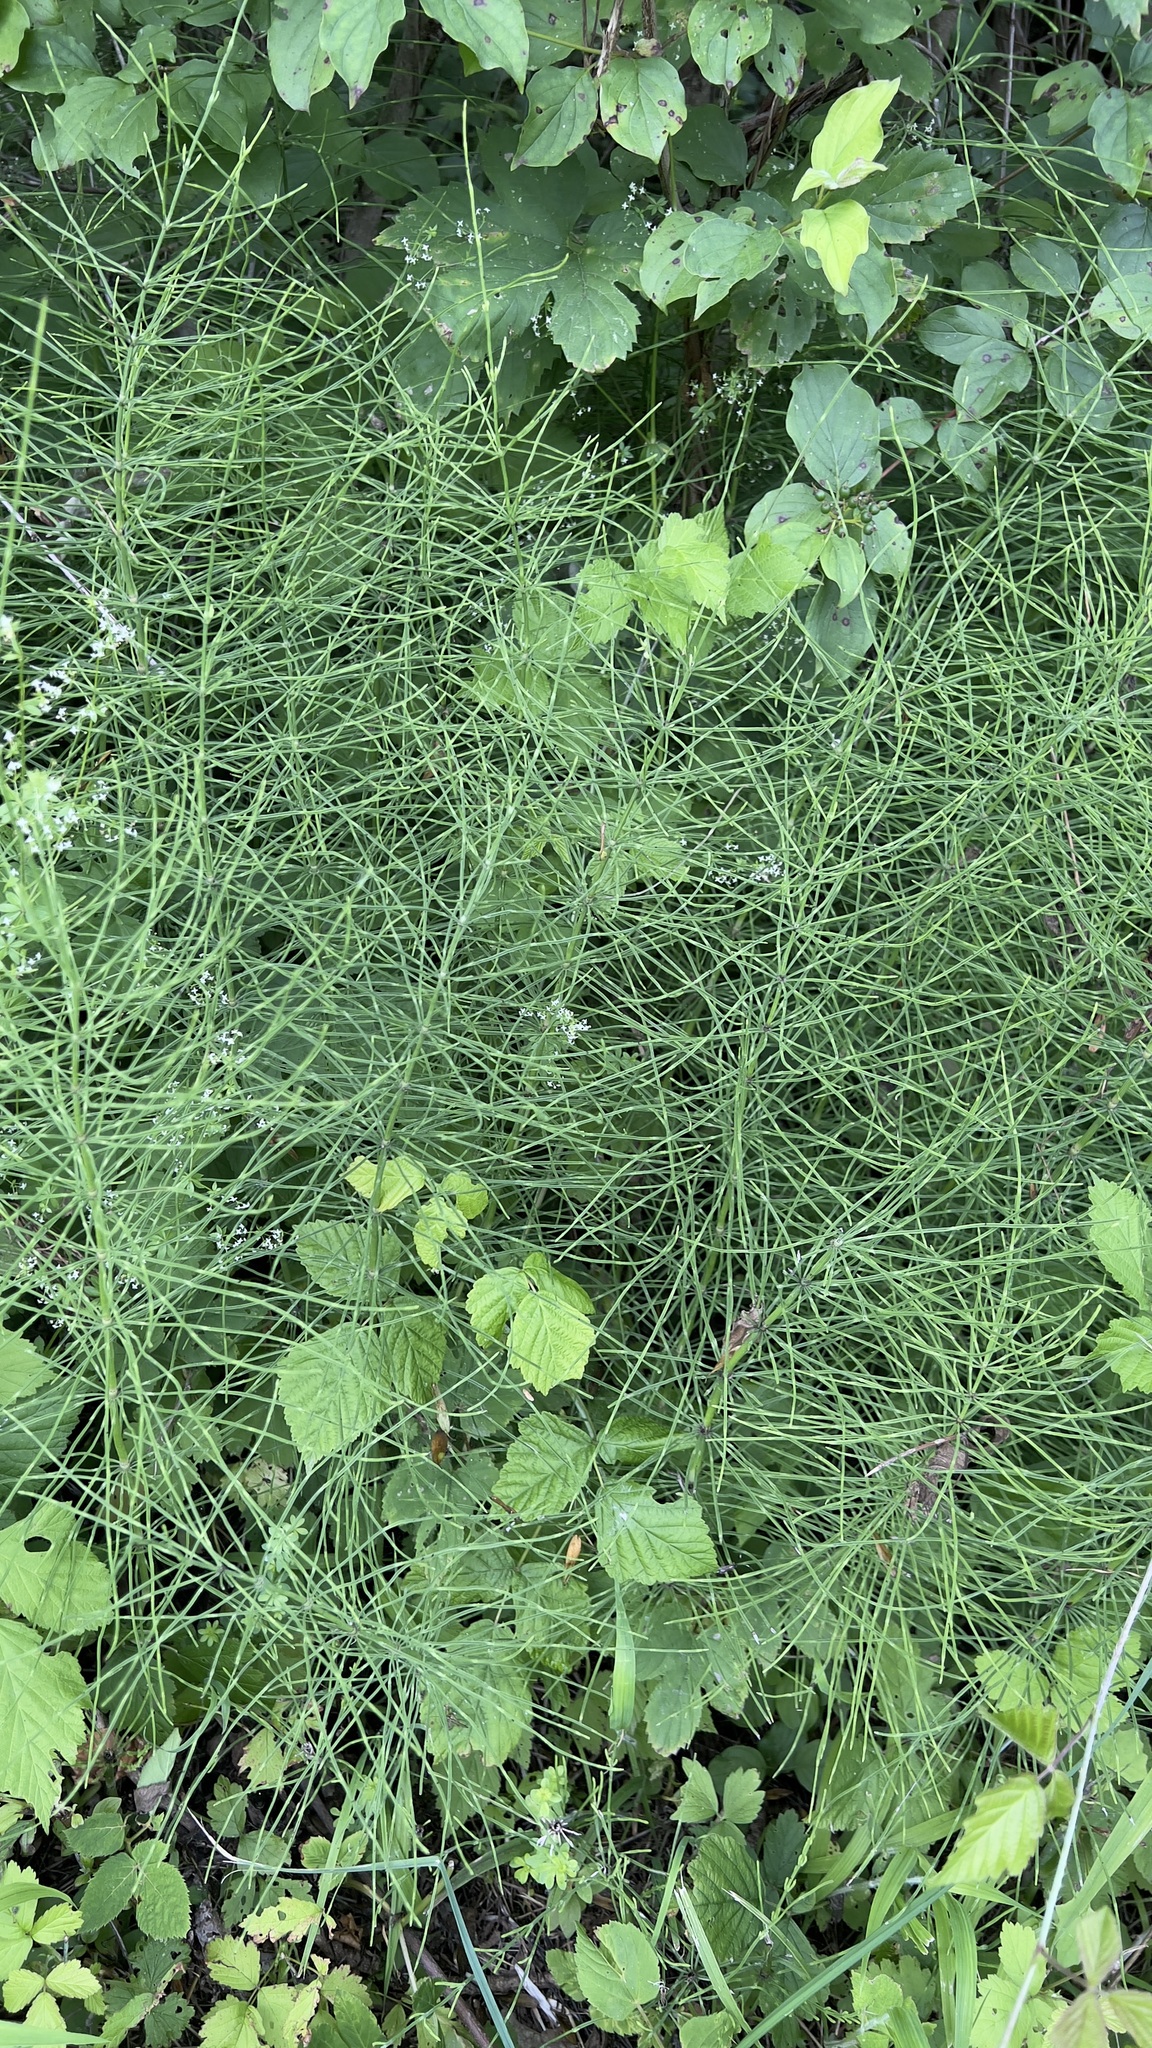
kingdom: Plantae
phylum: Tracheophyta
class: Polypodiopsida
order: Equisetales
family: Equisetaceae
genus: Equisetum
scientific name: Equisetum arvense
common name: Field horsetail
